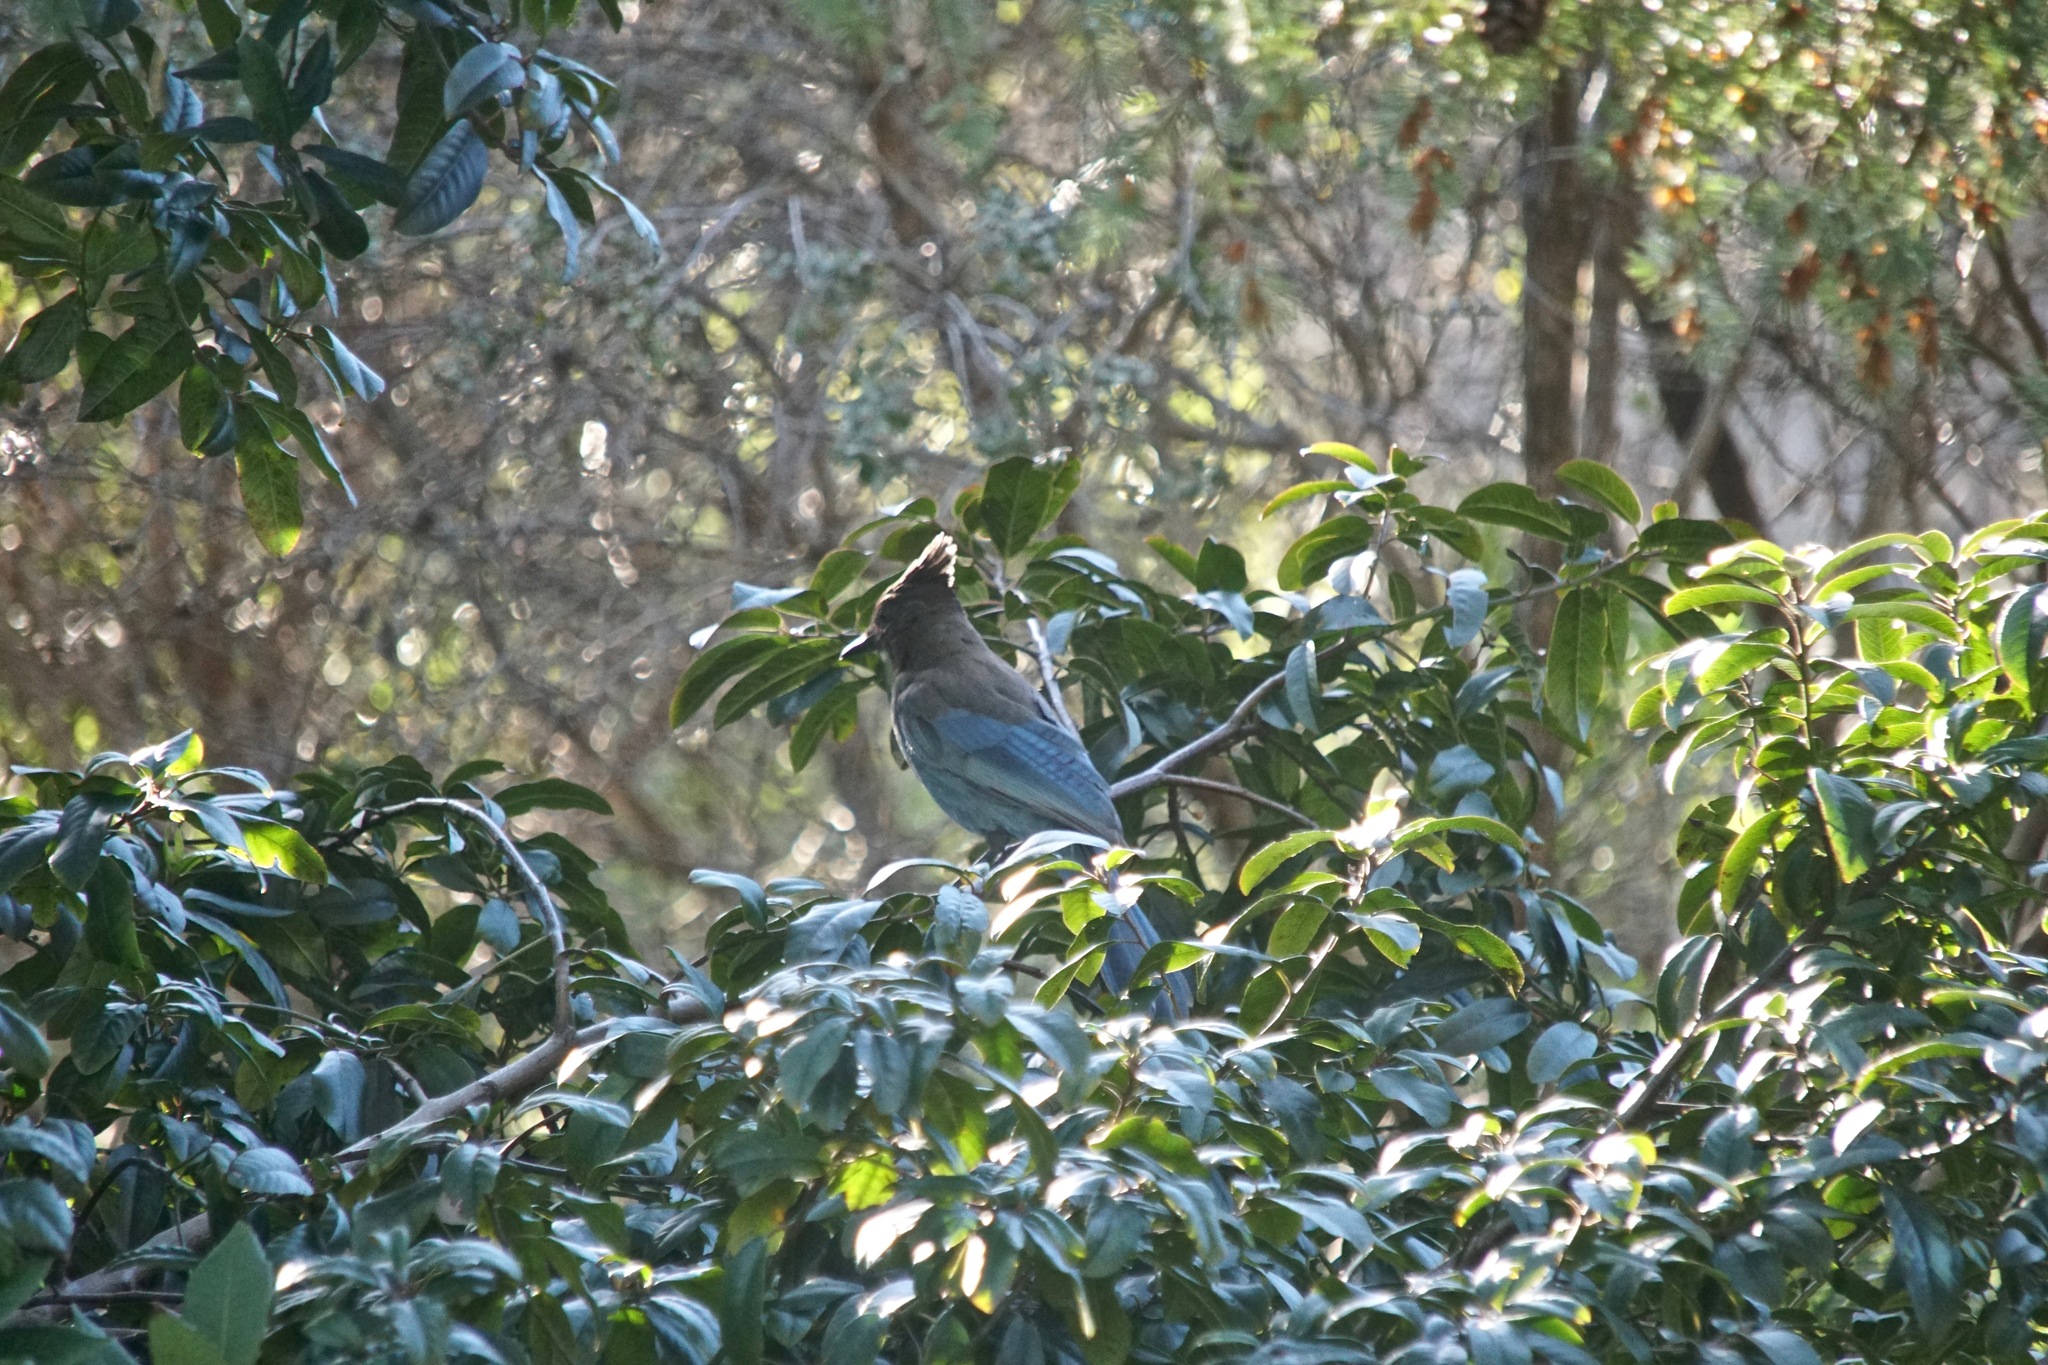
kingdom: Animalia
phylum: Chordata
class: Aves
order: Passeriformes
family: Corvidae
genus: Cyanocitta
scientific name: Cyanocitta stelleri
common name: Steller's jay
